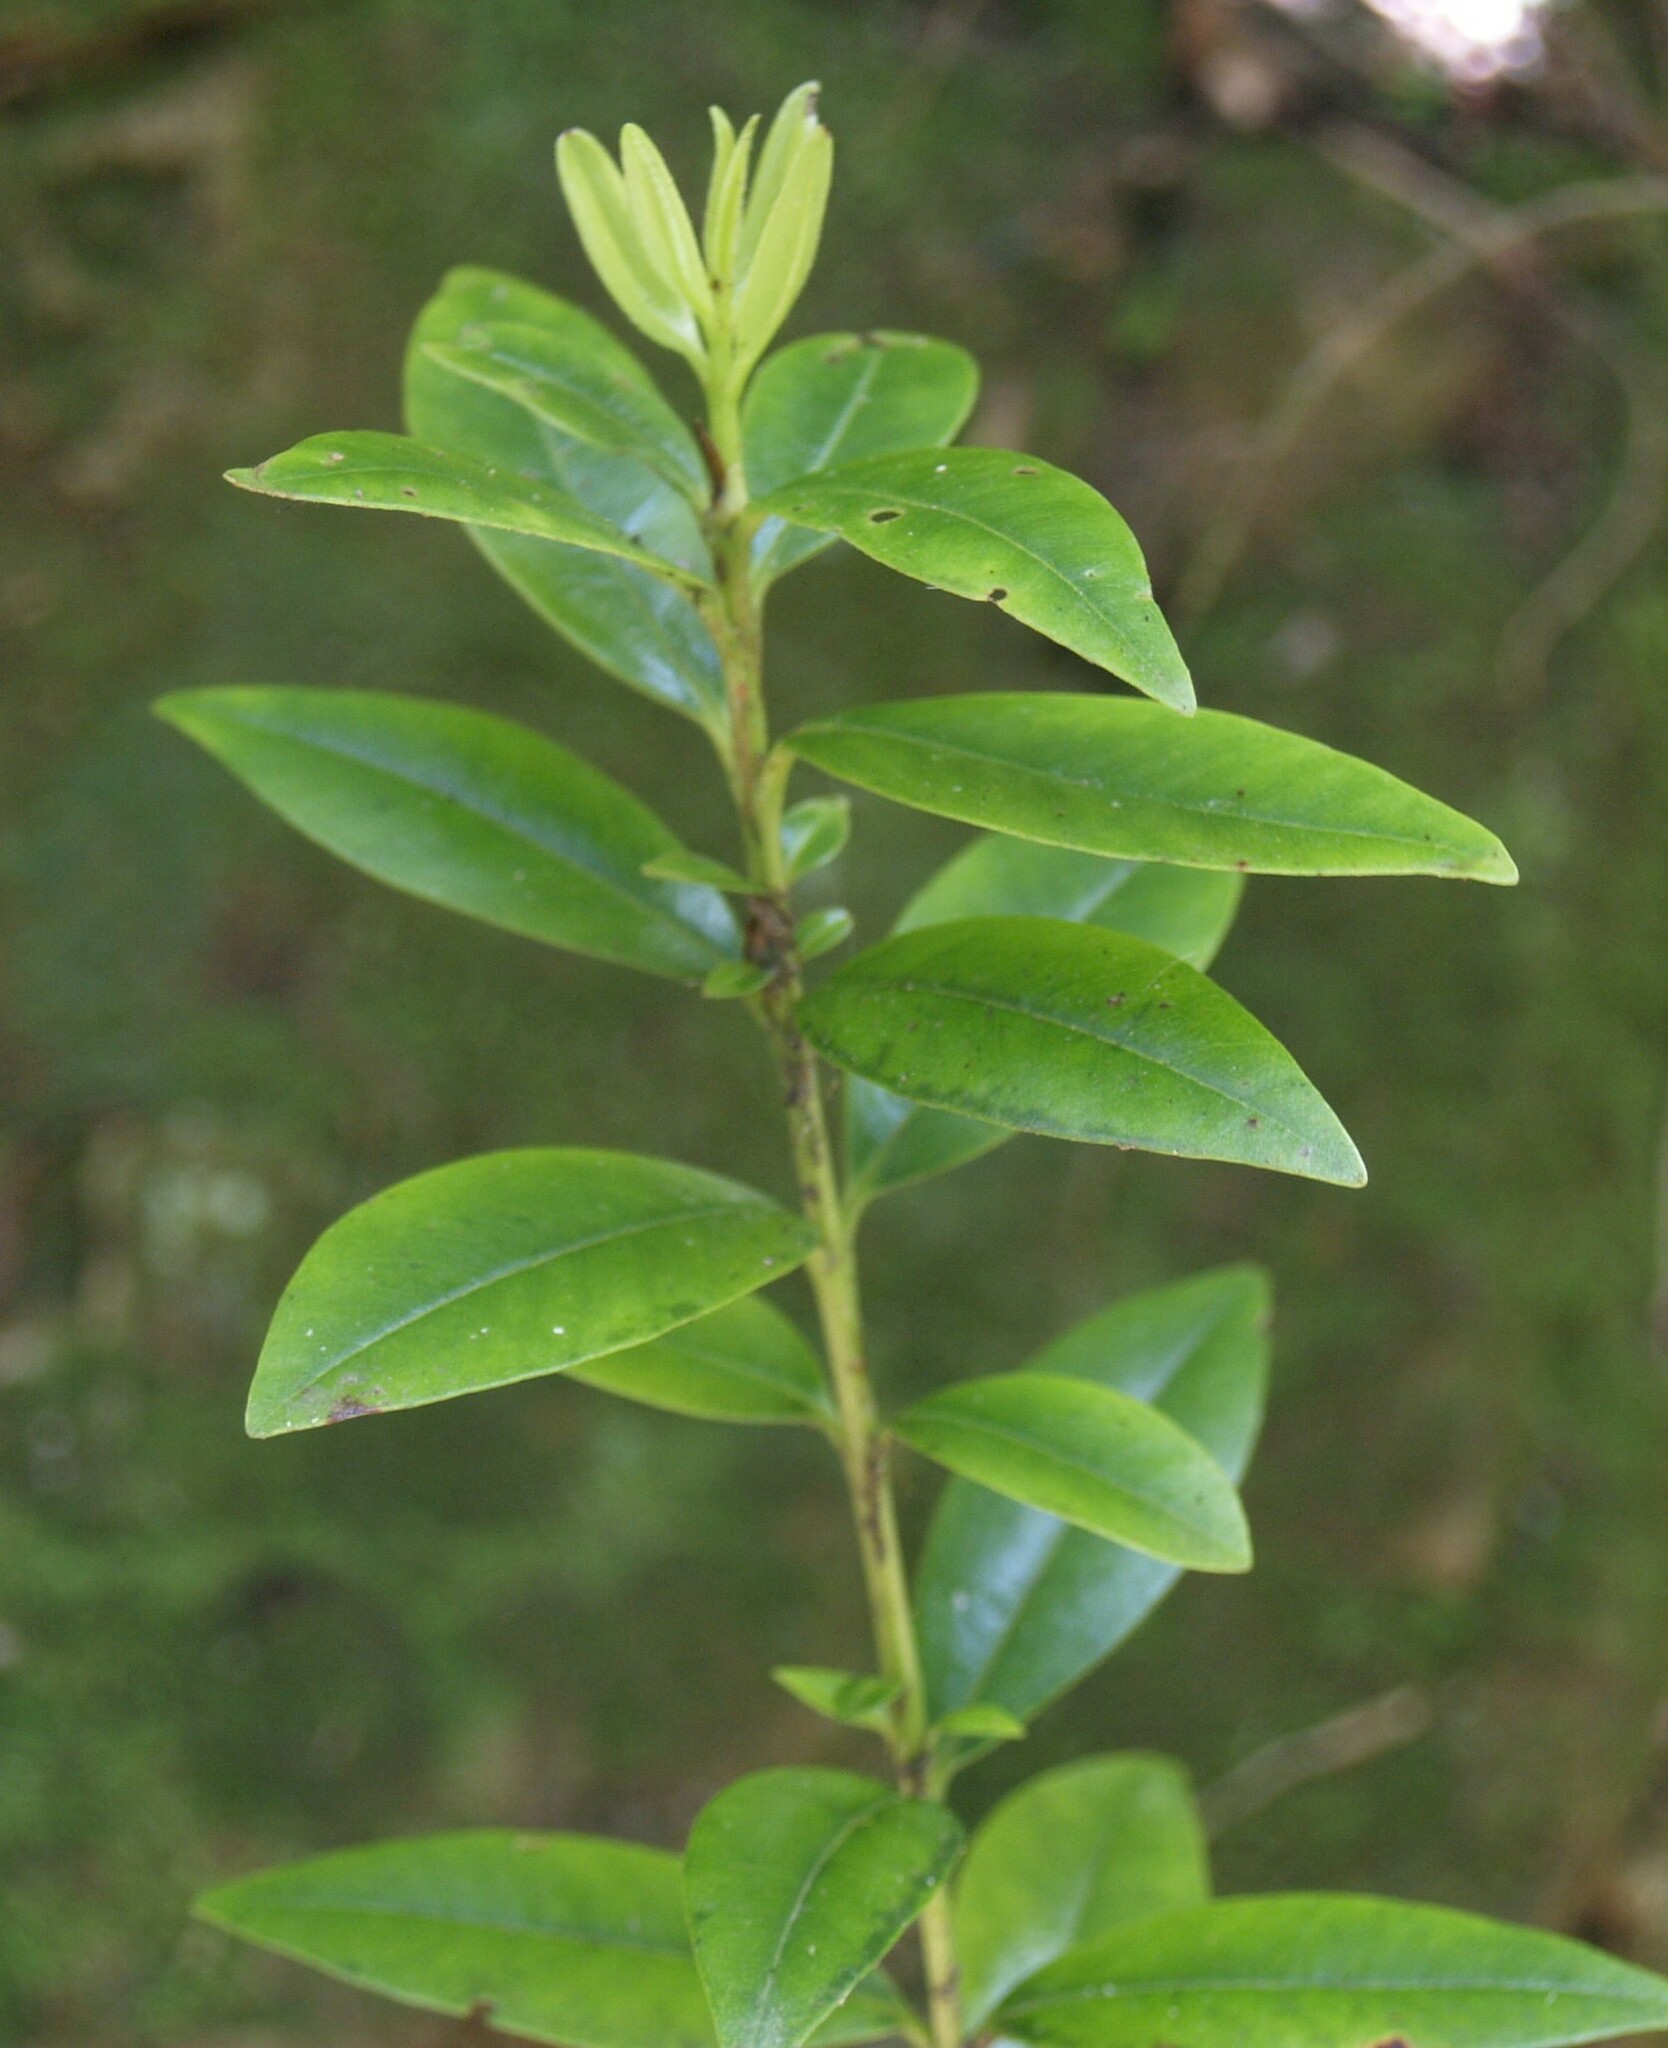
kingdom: Plantae
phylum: Tracheophyta
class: Magnoliopsida
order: Myrtales
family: Myrtaceae
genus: Metrosideros
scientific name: Metrosideros excelsa
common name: New zealand christmastree
